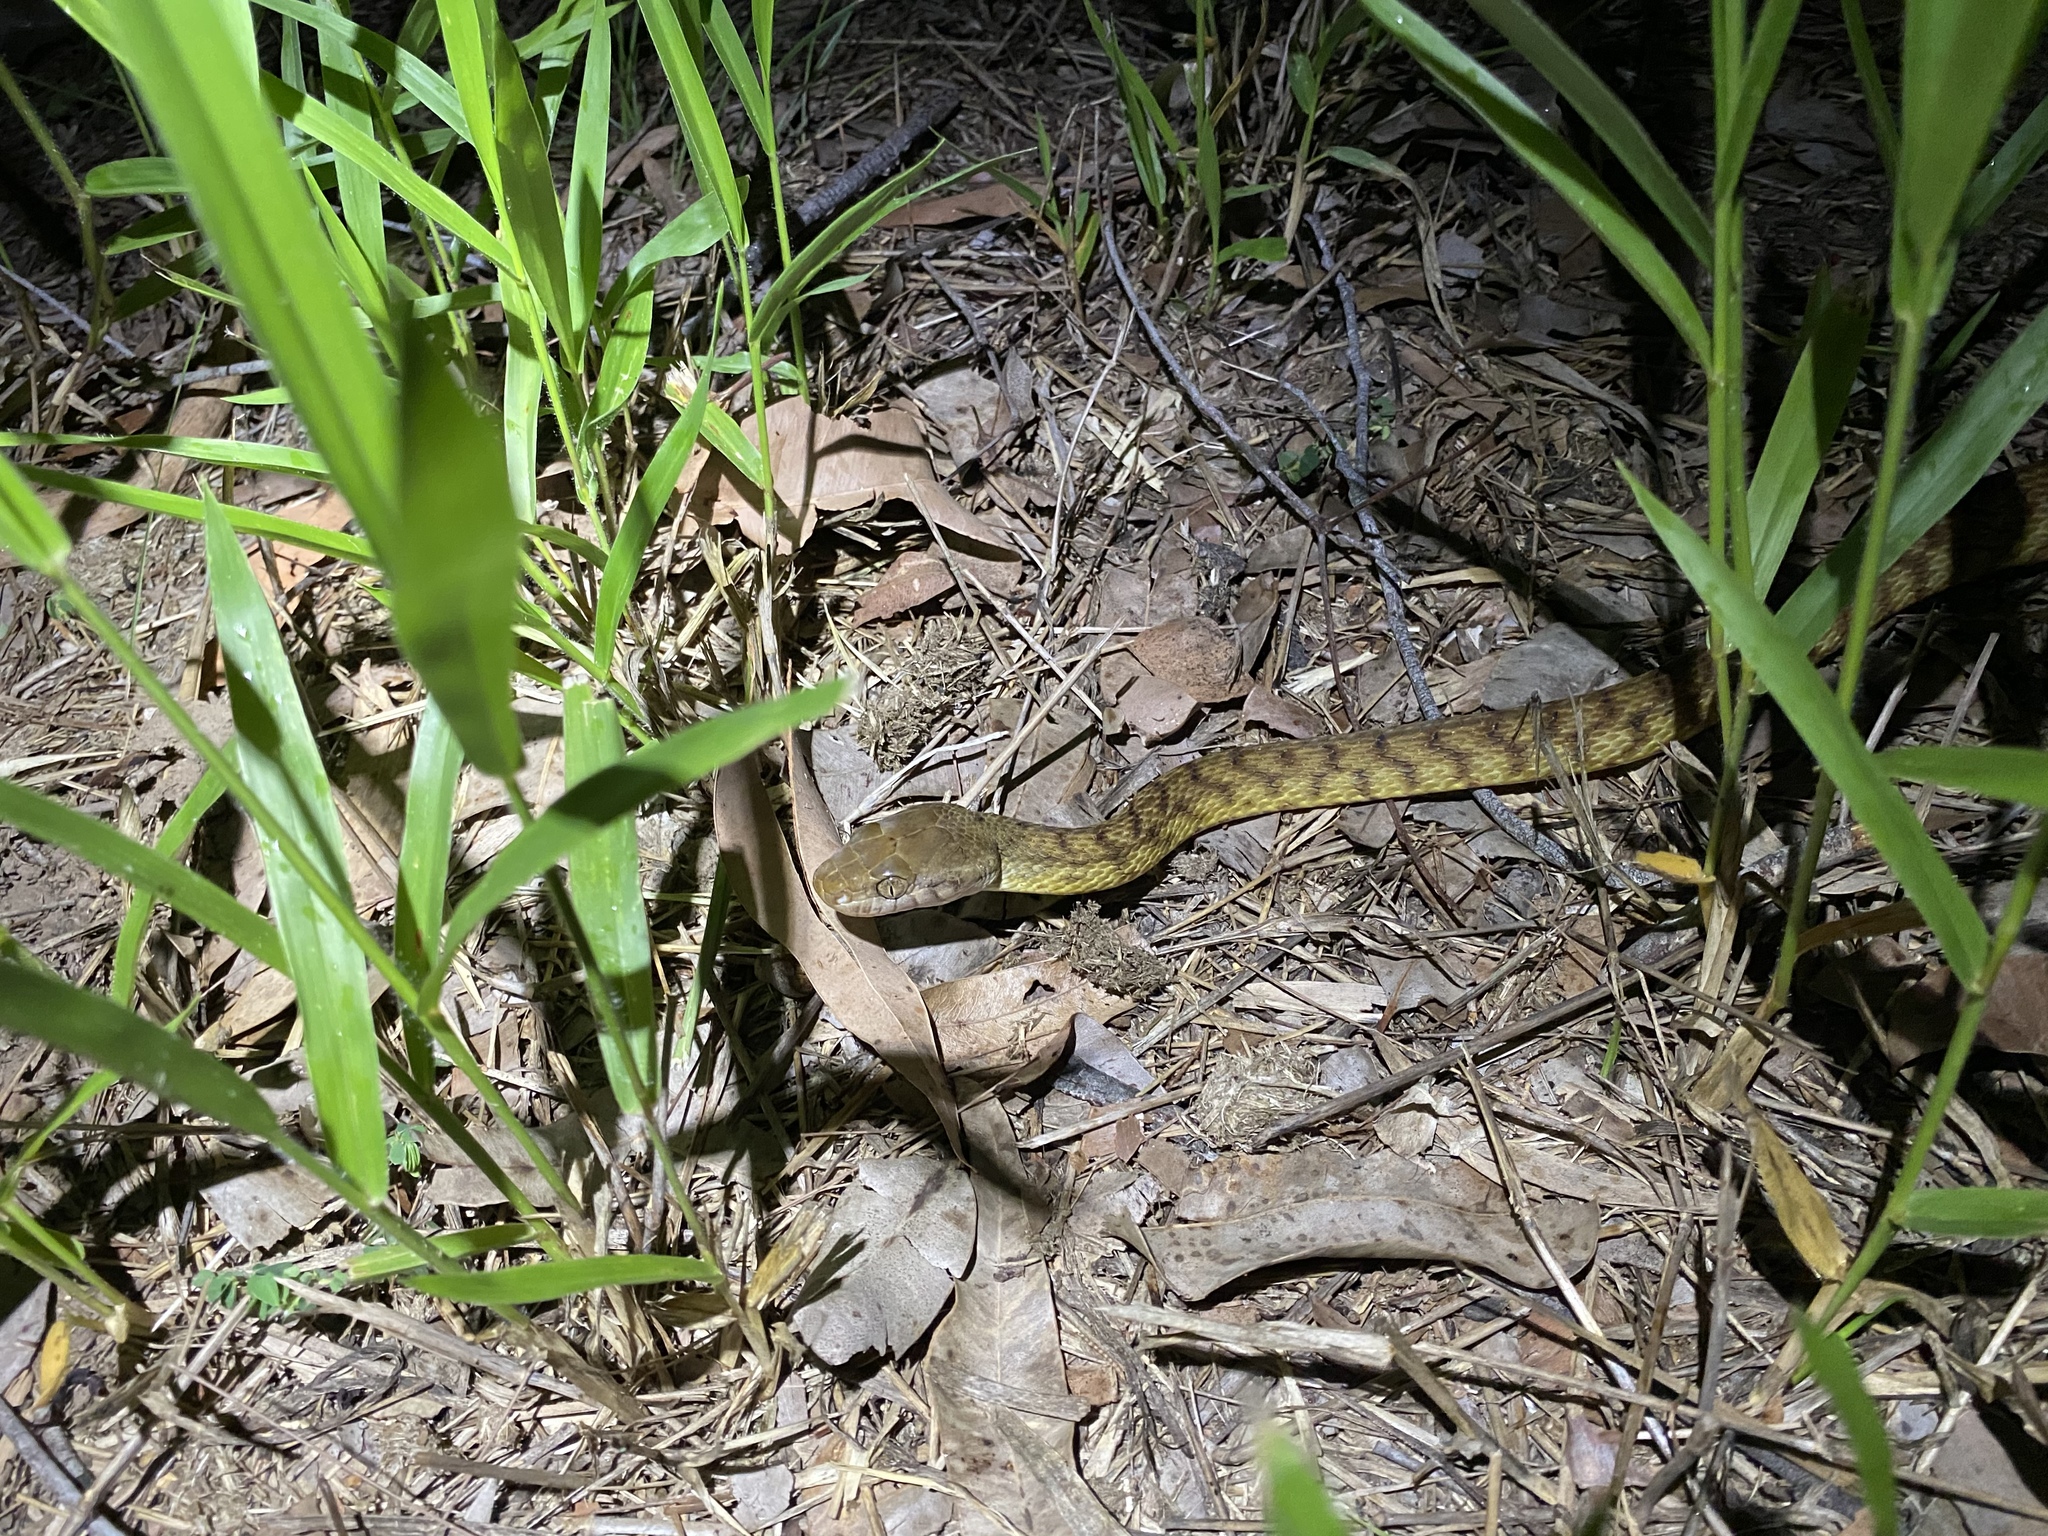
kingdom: Animalia
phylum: Chordata
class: Squamata
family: Colubridae
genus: Boiga
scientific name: Boiga irregularis
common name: Brown tree snake
